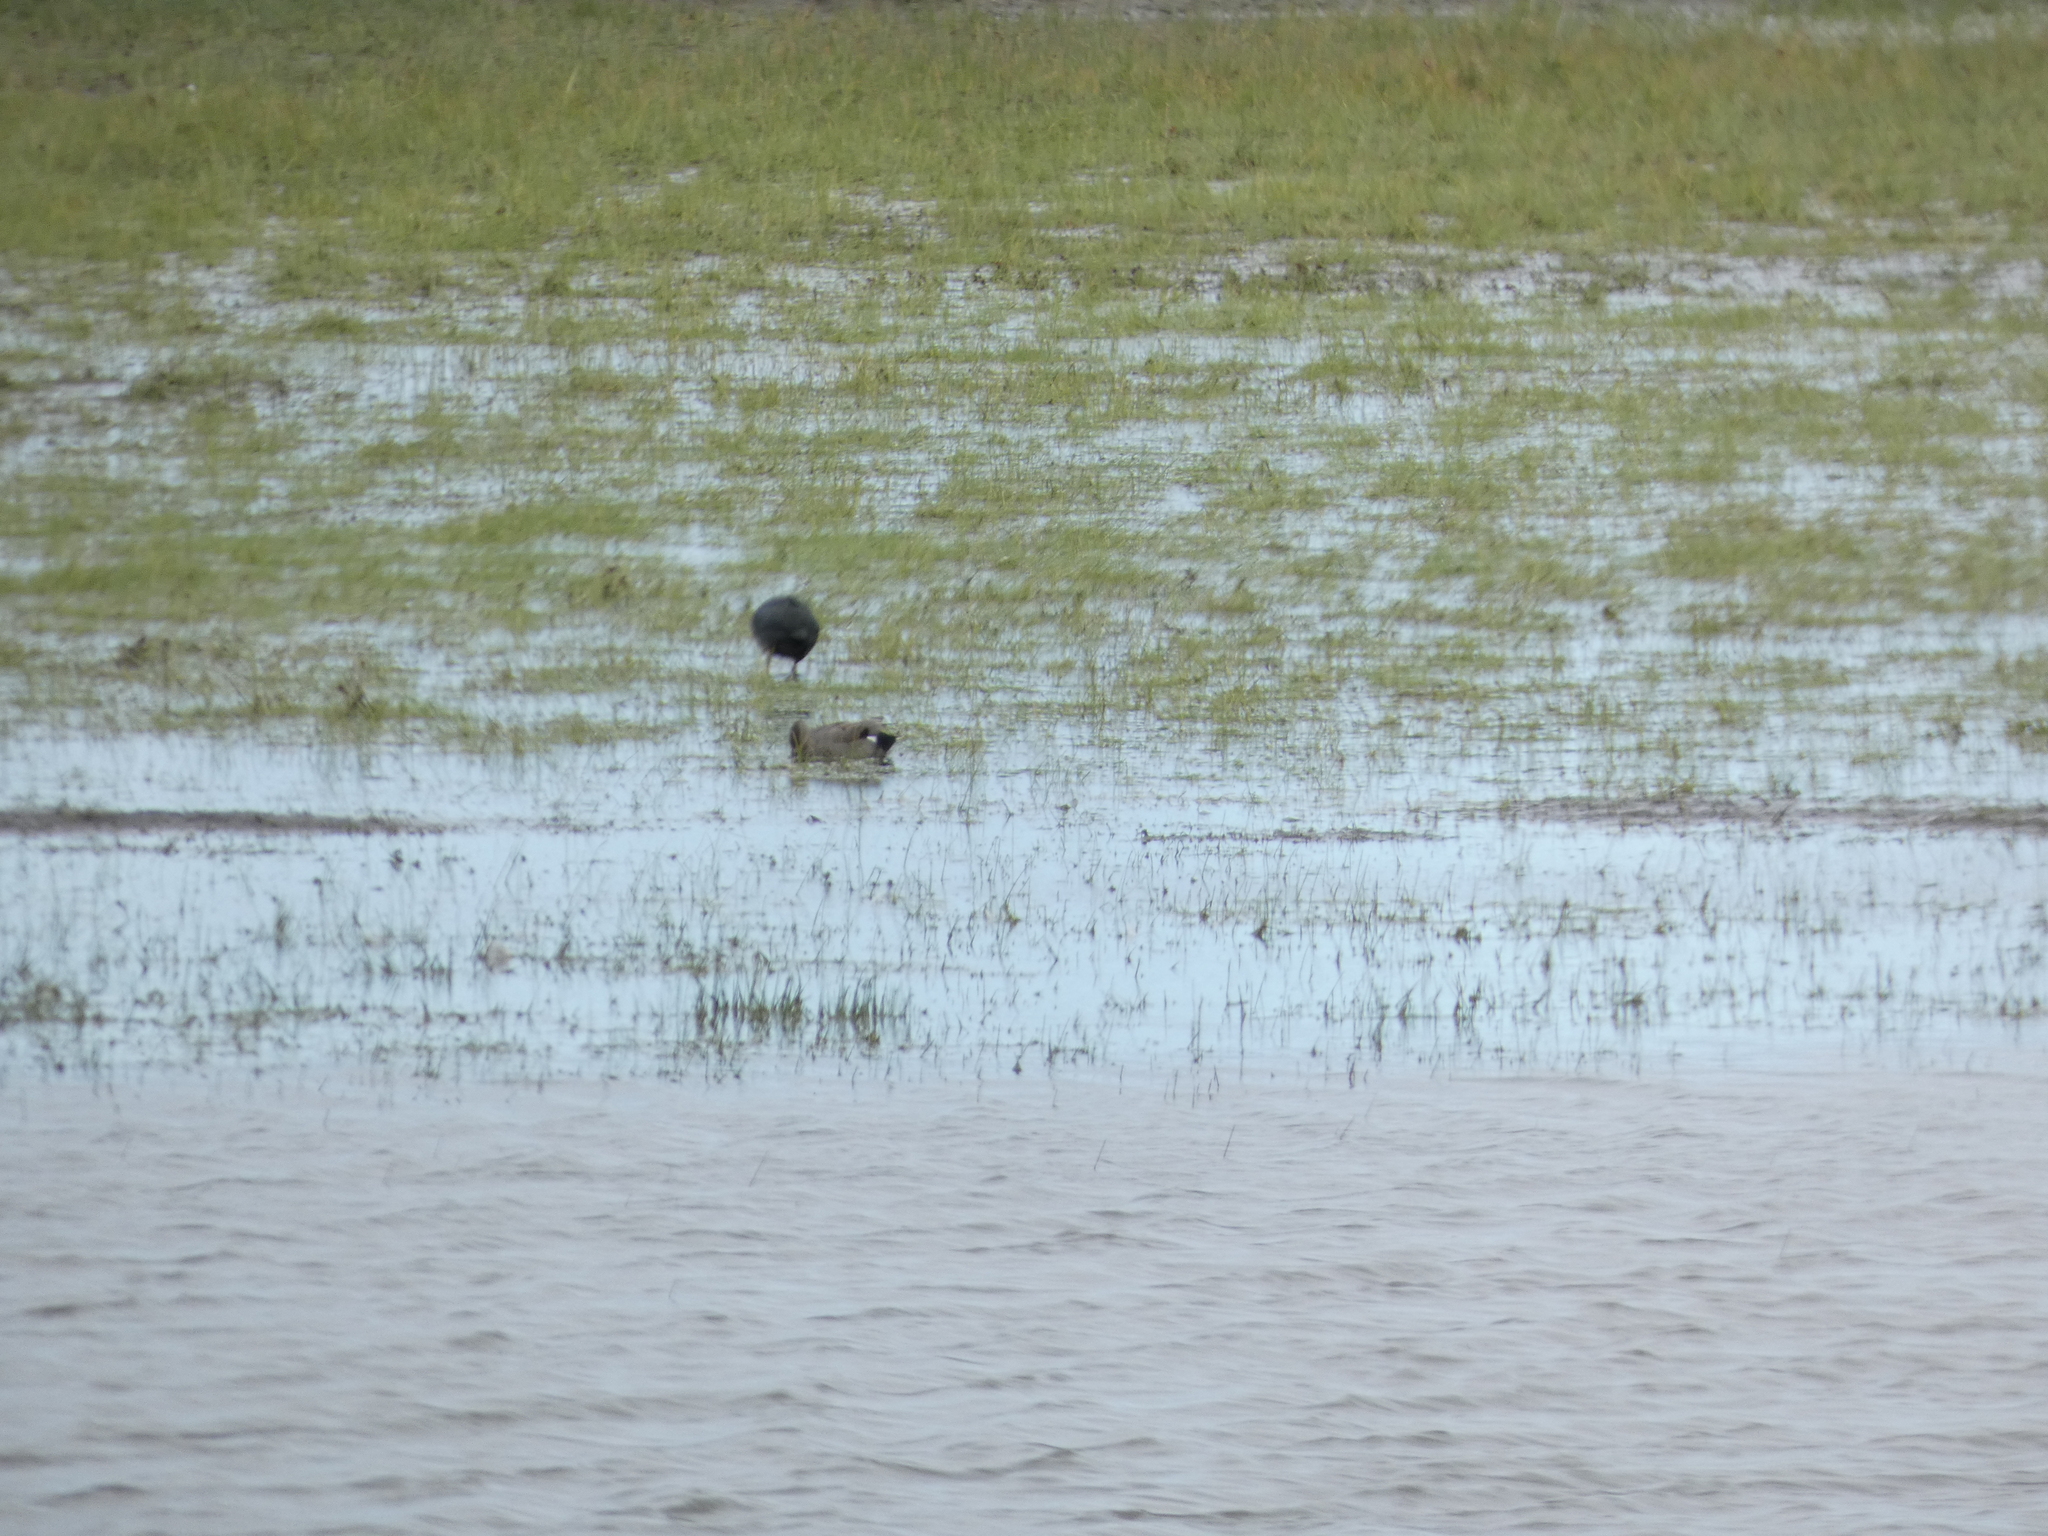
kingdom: Animalia
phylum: Chordata
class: Aves
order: Anseriformes
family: Anatidae
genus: Mareca
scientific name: Mareca strepera
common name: Gadwall
